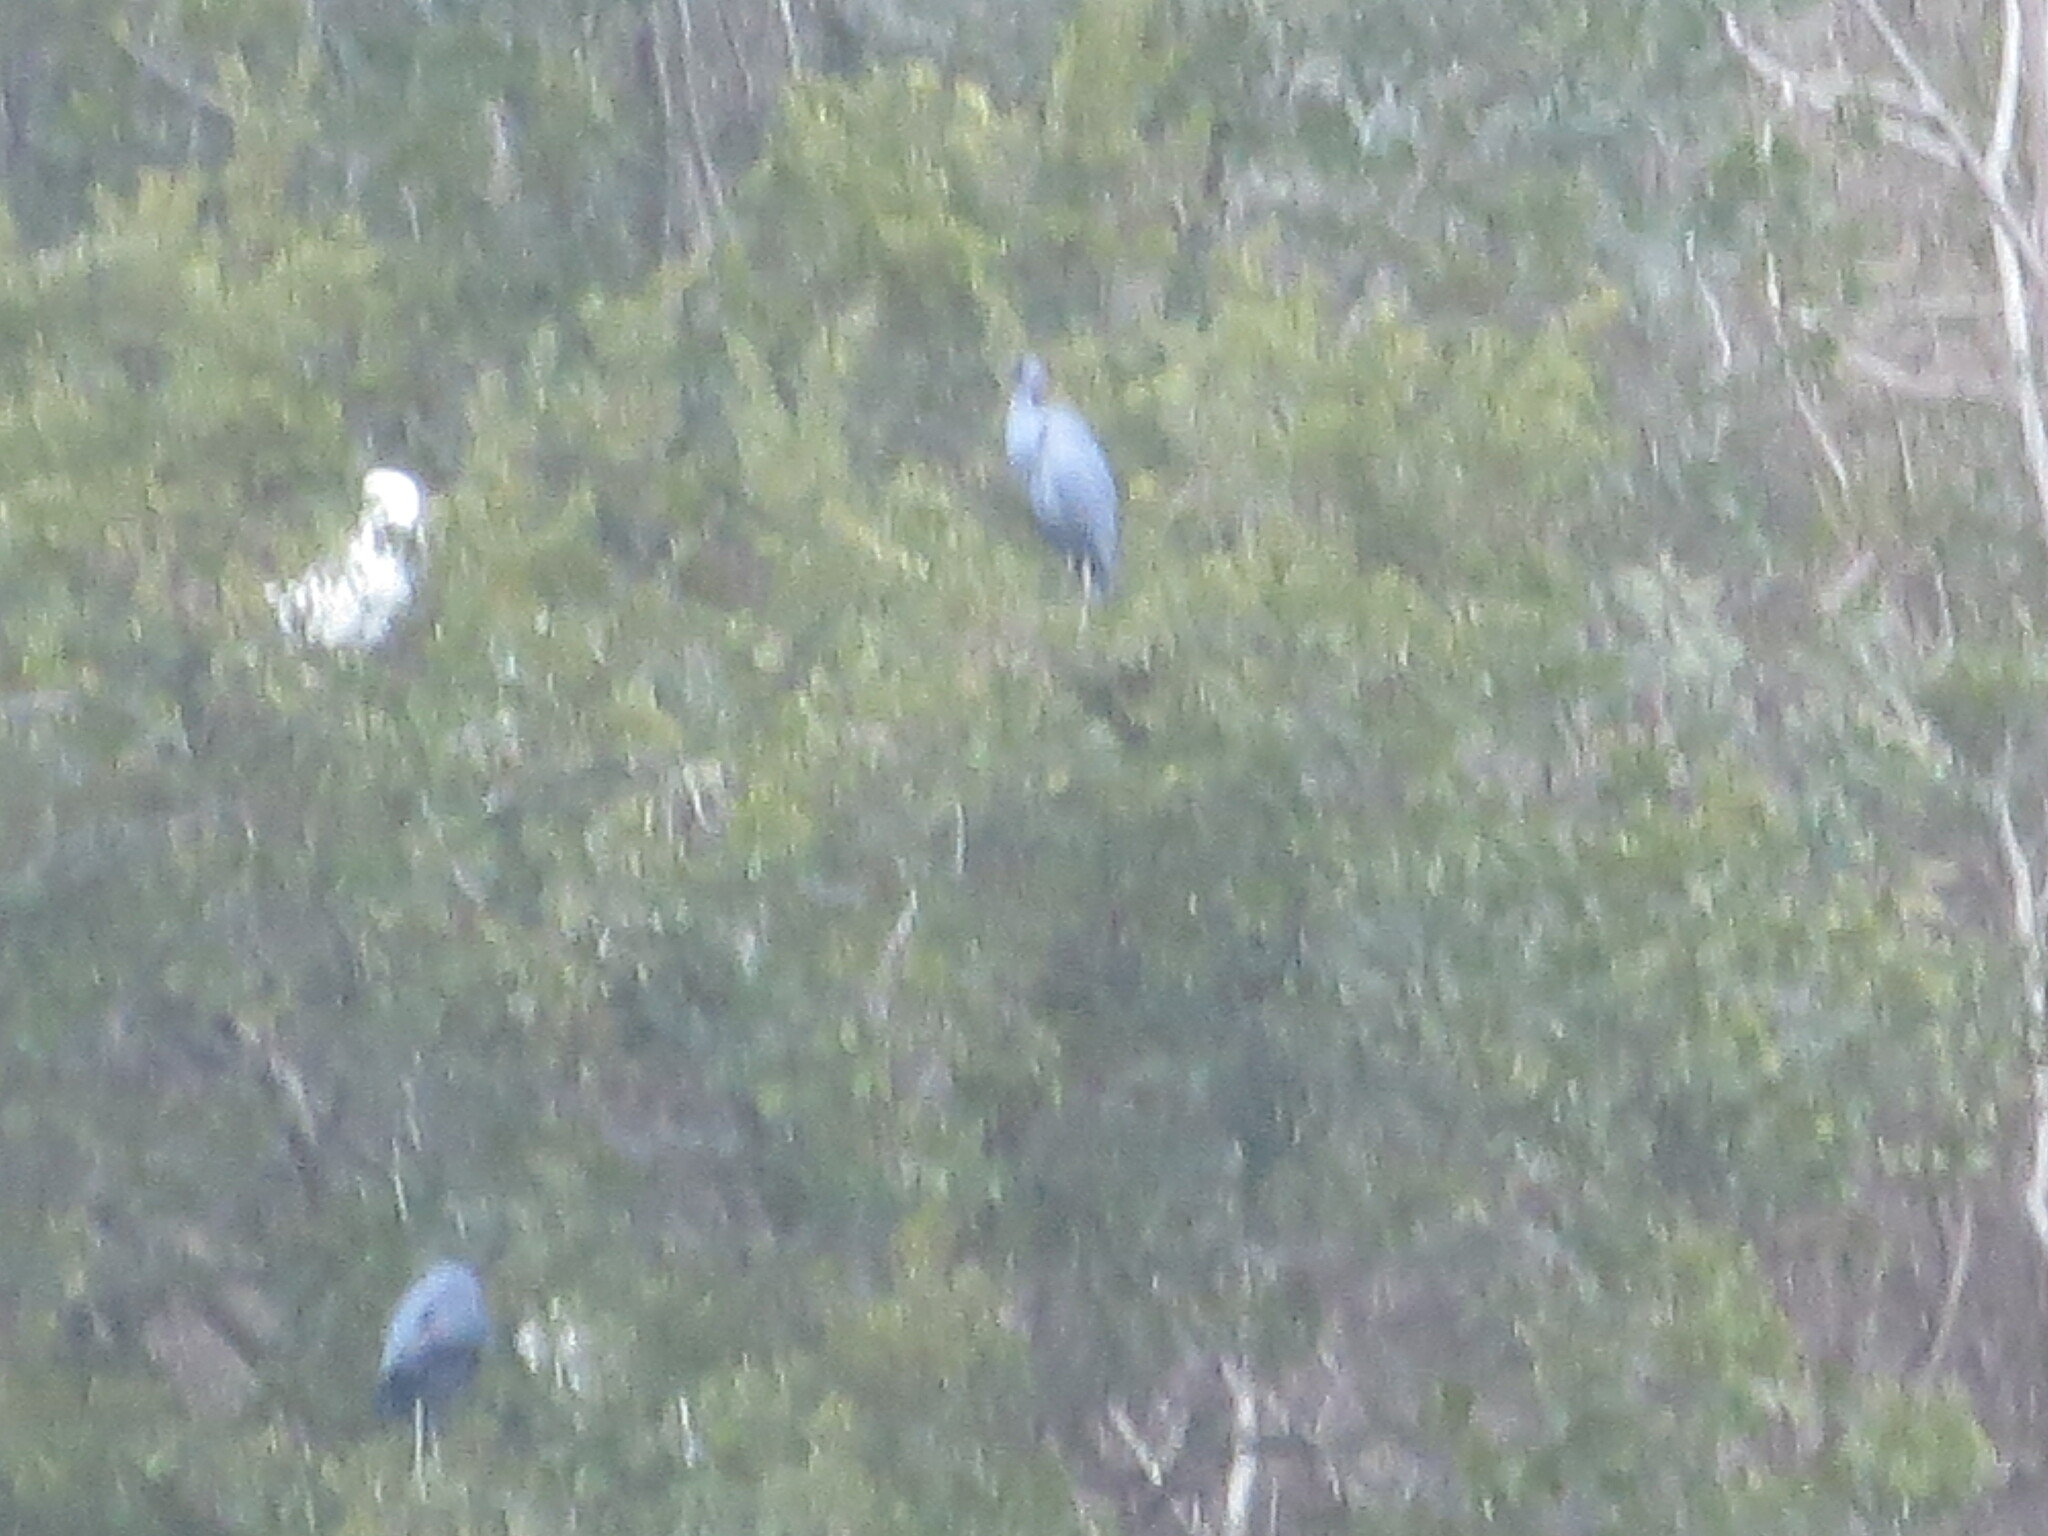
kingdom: Animalia
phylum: Chordata
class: Aves
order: Pelecaniformes
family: Ardeidae
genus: Egretta
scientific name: Egretta caerulea
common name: Little blue heron
